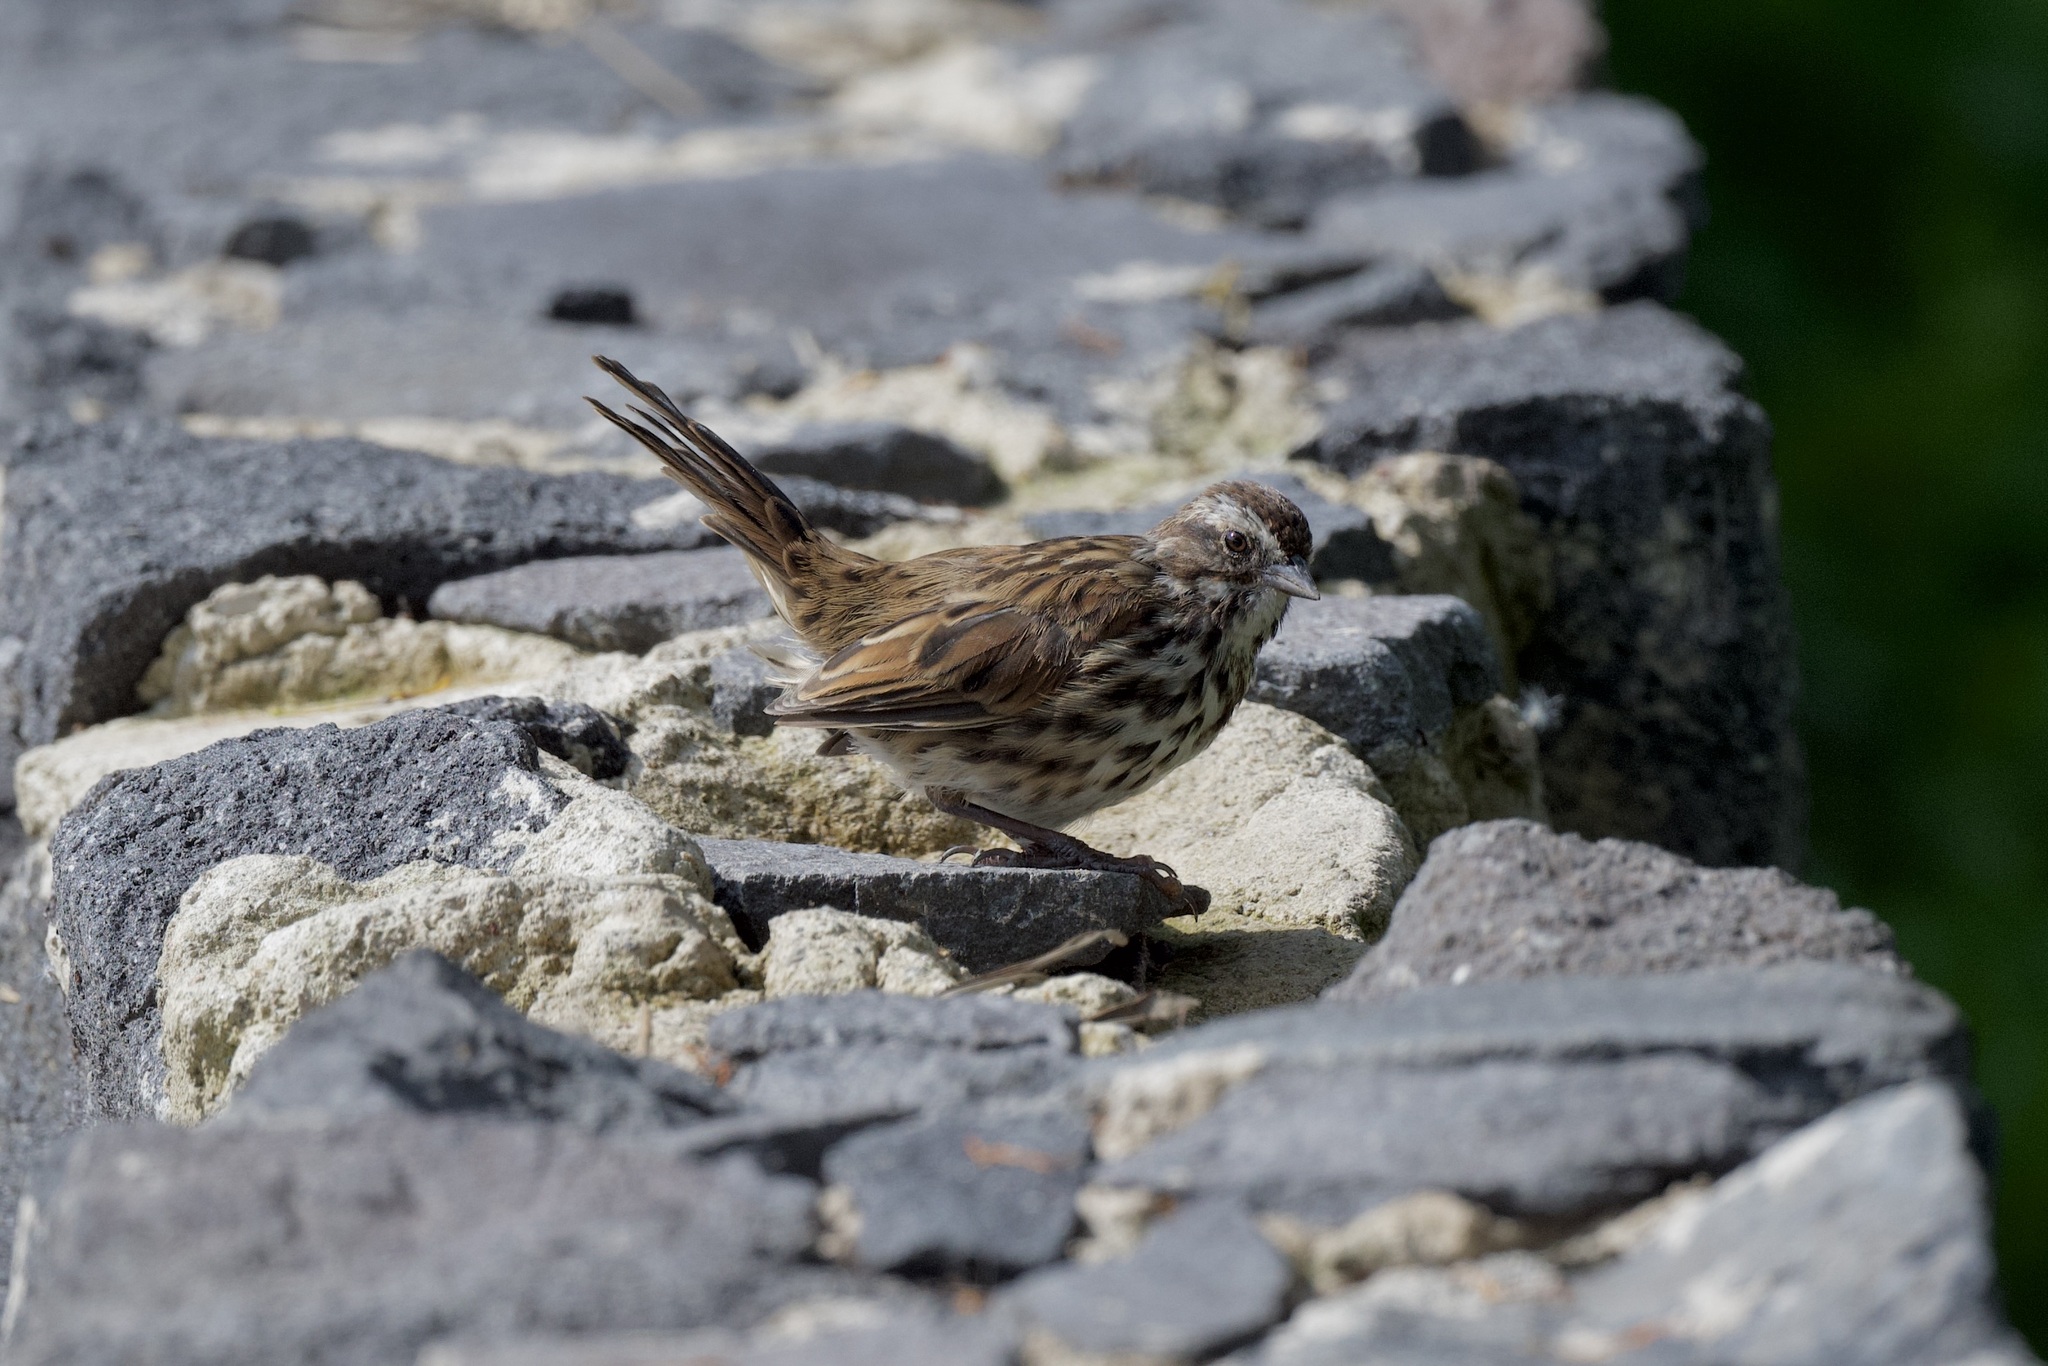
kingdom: Animalia
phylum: Chordata
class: Aves
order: Passeriformes
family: Passerellidae
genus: Melospiza
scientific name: Melospiza melodia
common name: Song sparrow
